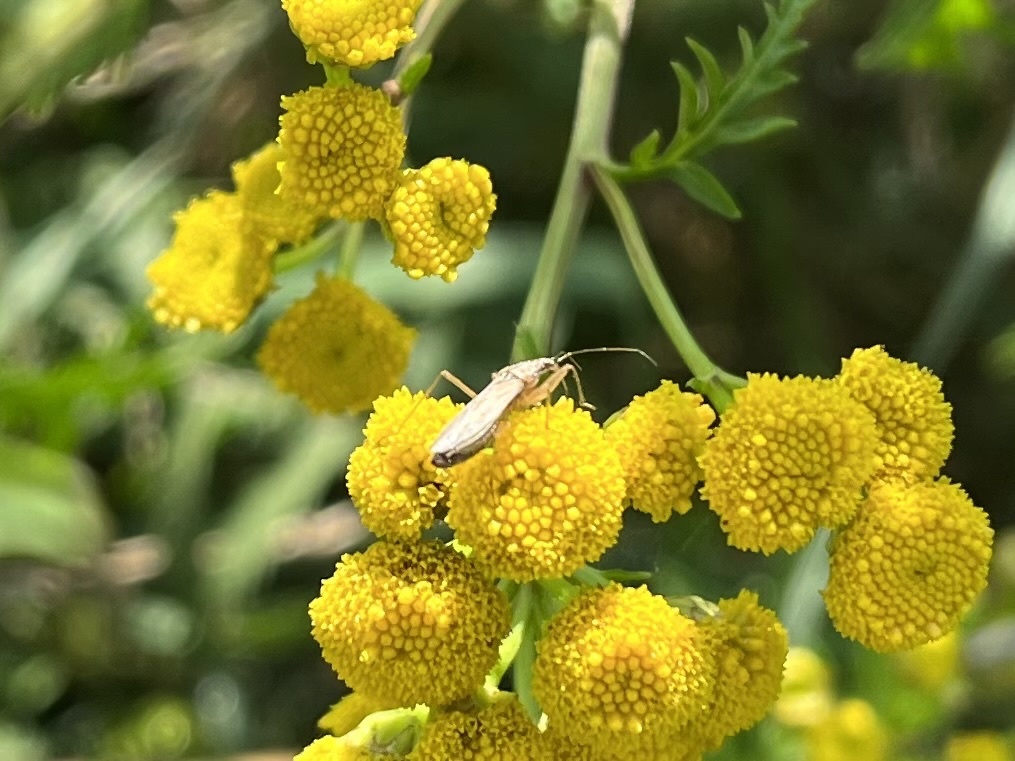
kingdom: Animalia
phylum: Arthropoda
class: Insecta
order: Hemiptera
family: Nabidae
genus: Nabis
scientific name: Nabis
